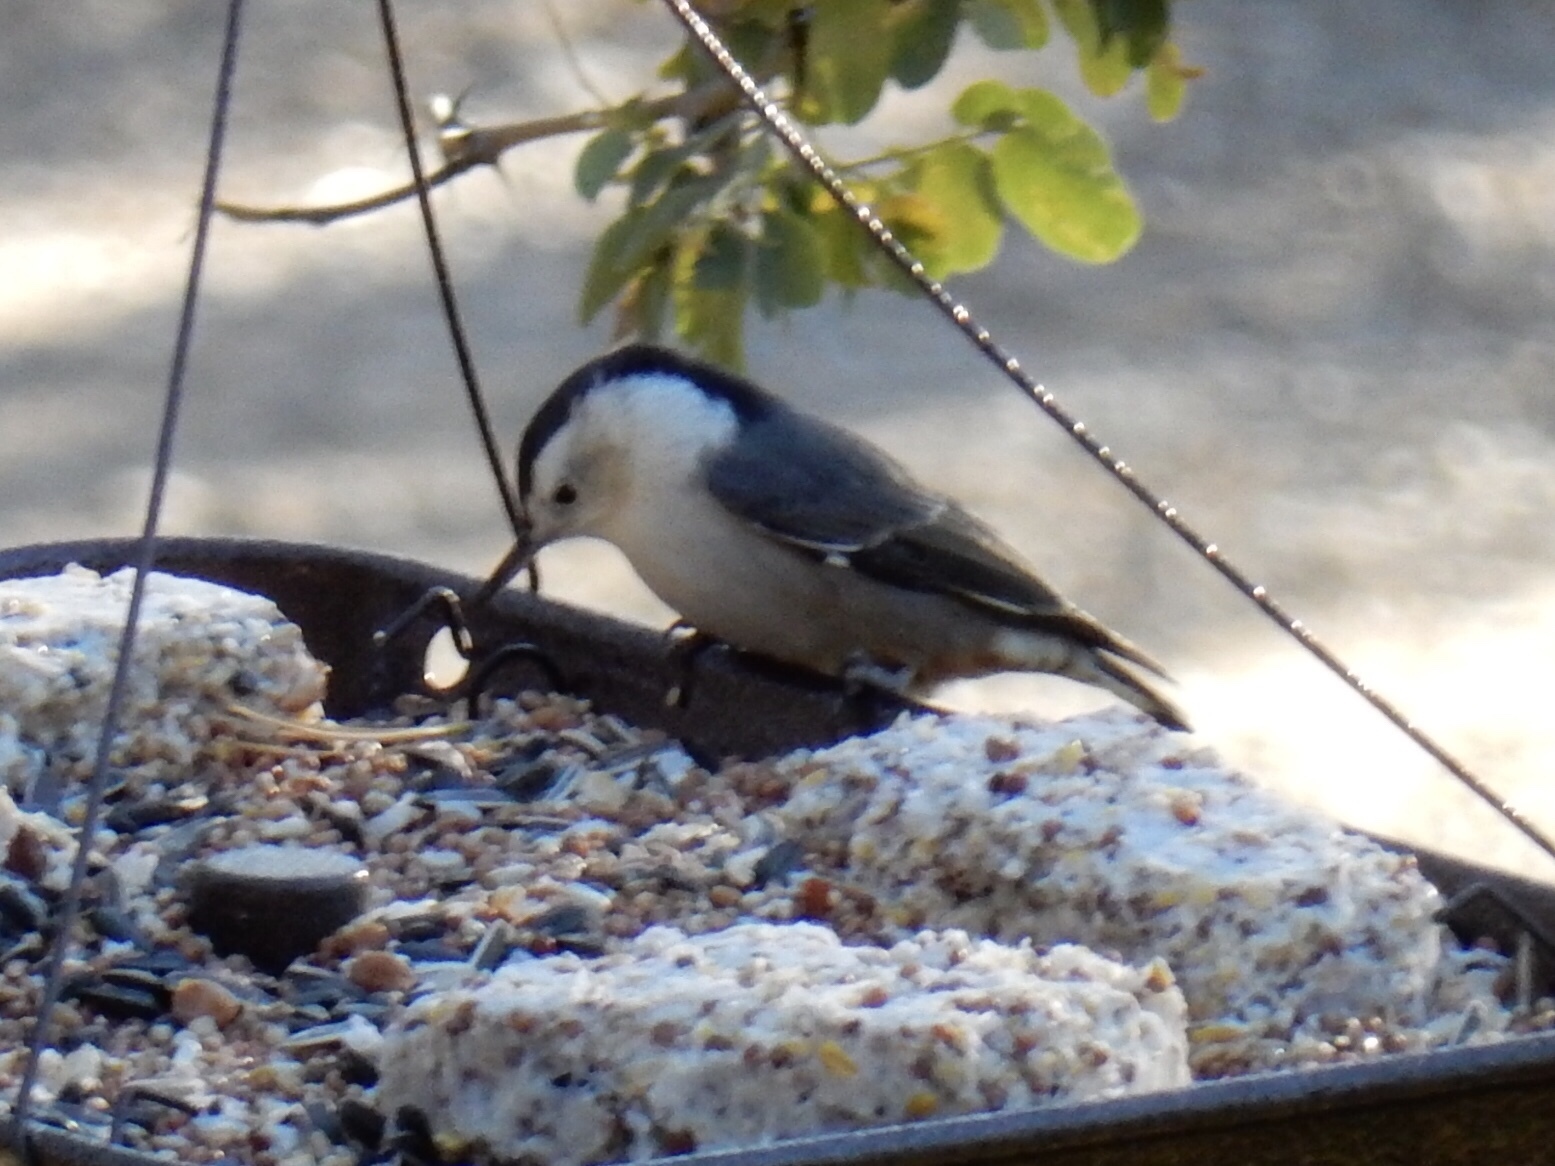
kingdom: Animalia
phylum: Chordata
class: Aves
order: Passeriformes
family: Sittidae
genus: Sitta
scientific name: Sitta carolinensis
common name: White-breasted nuthatch
